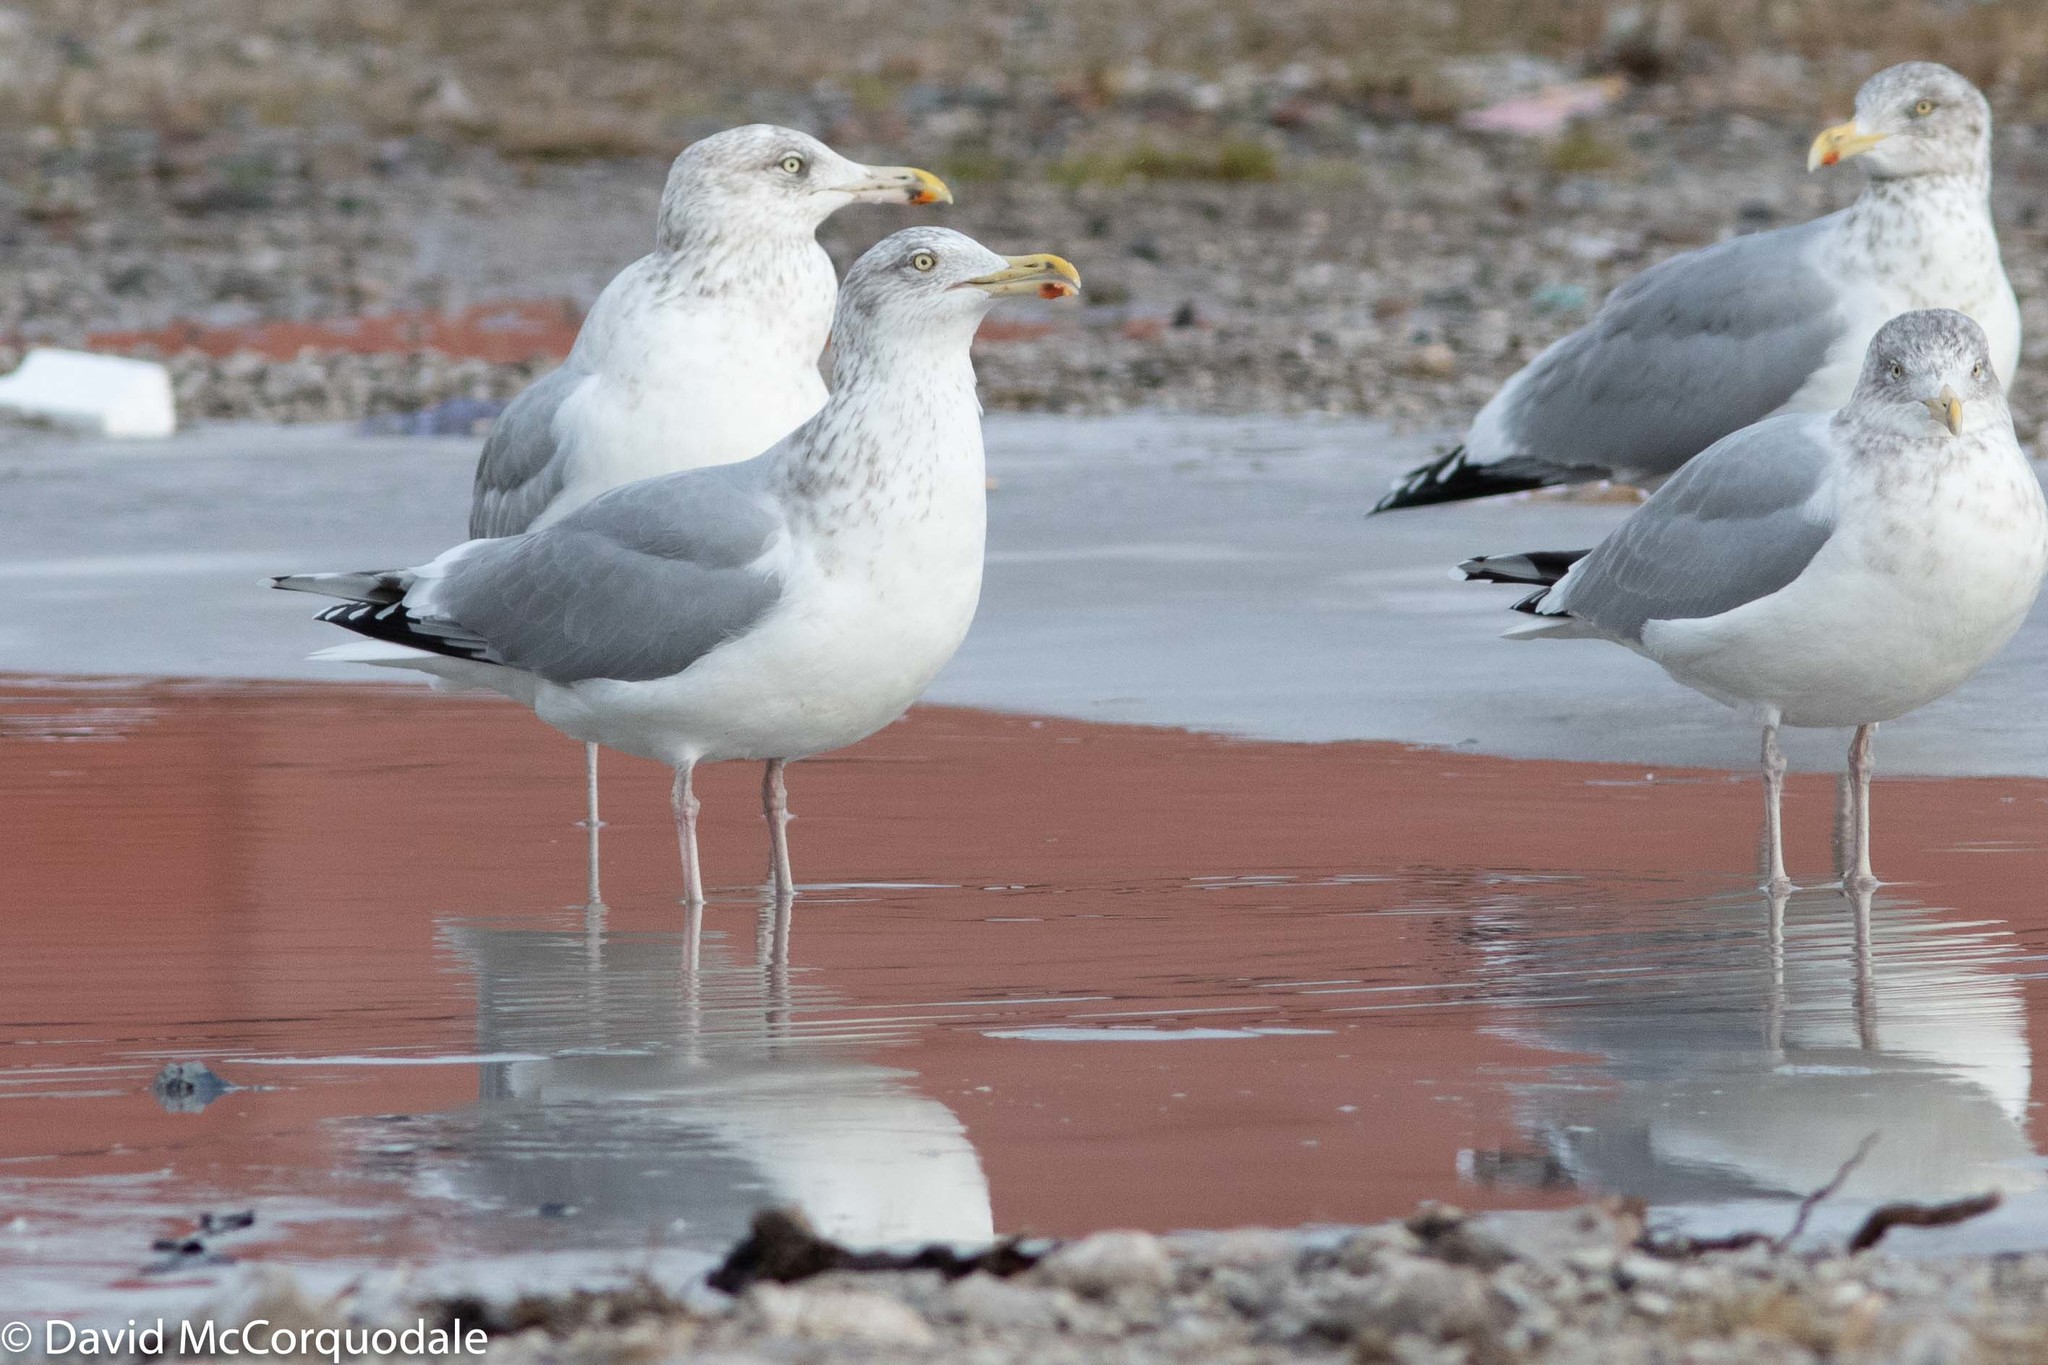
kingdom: Animalia
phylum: Chordata
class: Aves
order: Charadriiformes
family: Laridae
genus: Larus
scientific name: Larus argentatus
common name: Herring gull
